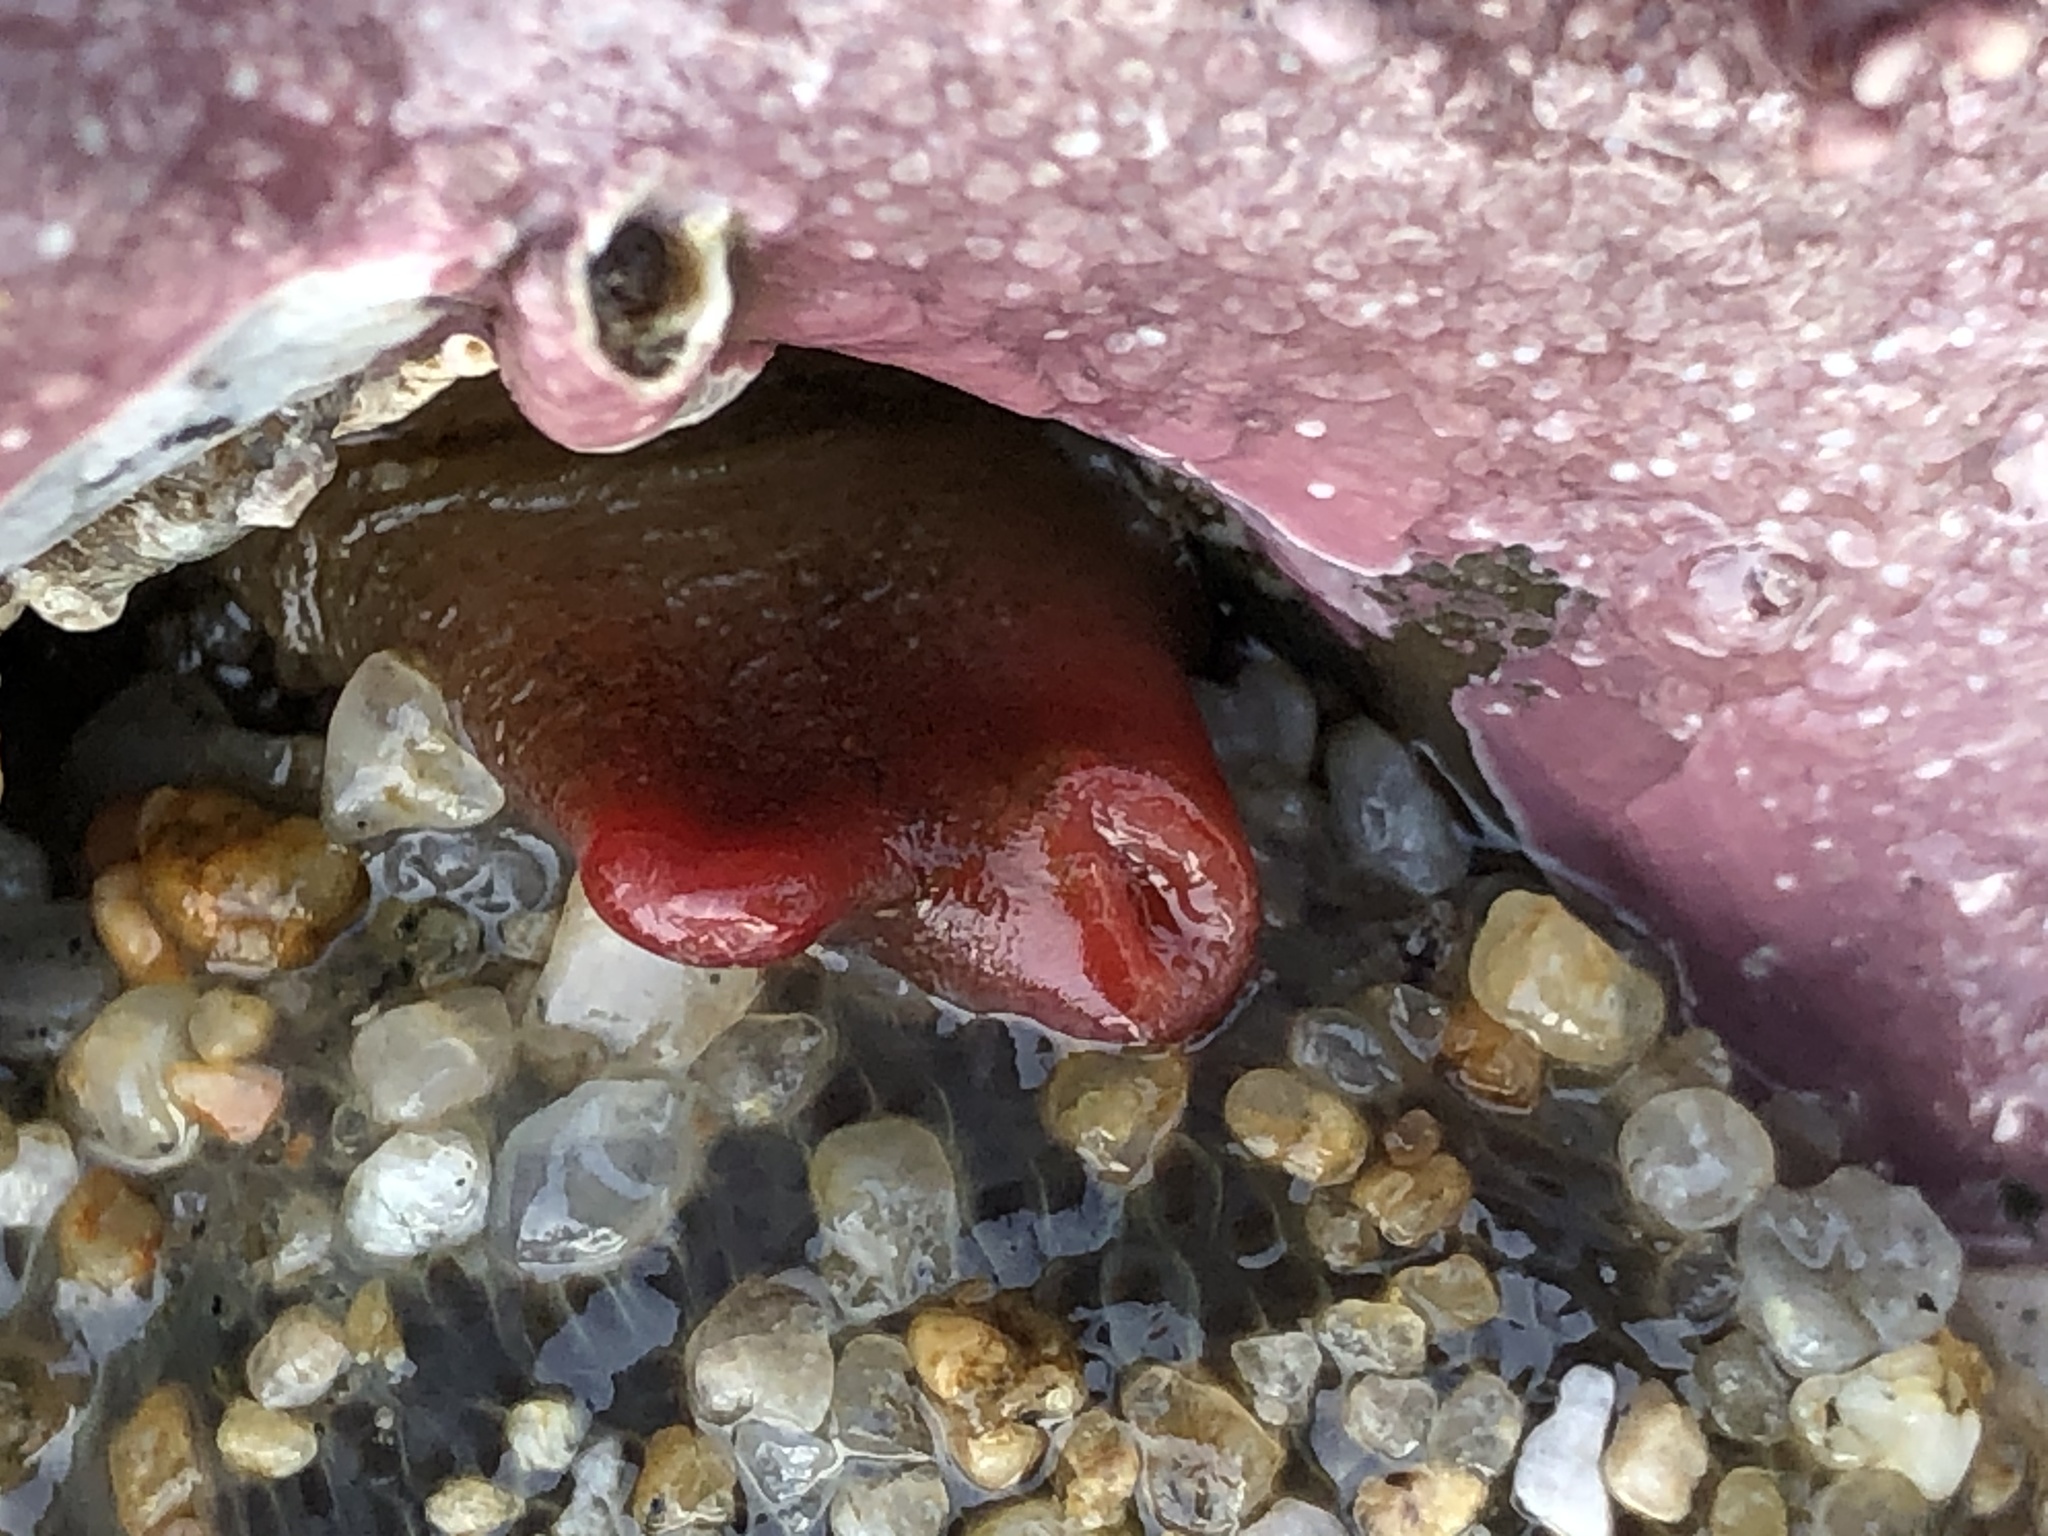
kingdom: Animalia
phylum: Mollusca
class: Bivalvia
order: Adapedonta
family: Hiatellidae
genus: Hiatella
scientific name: Hiatella arctica
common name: Arctic hiatella
